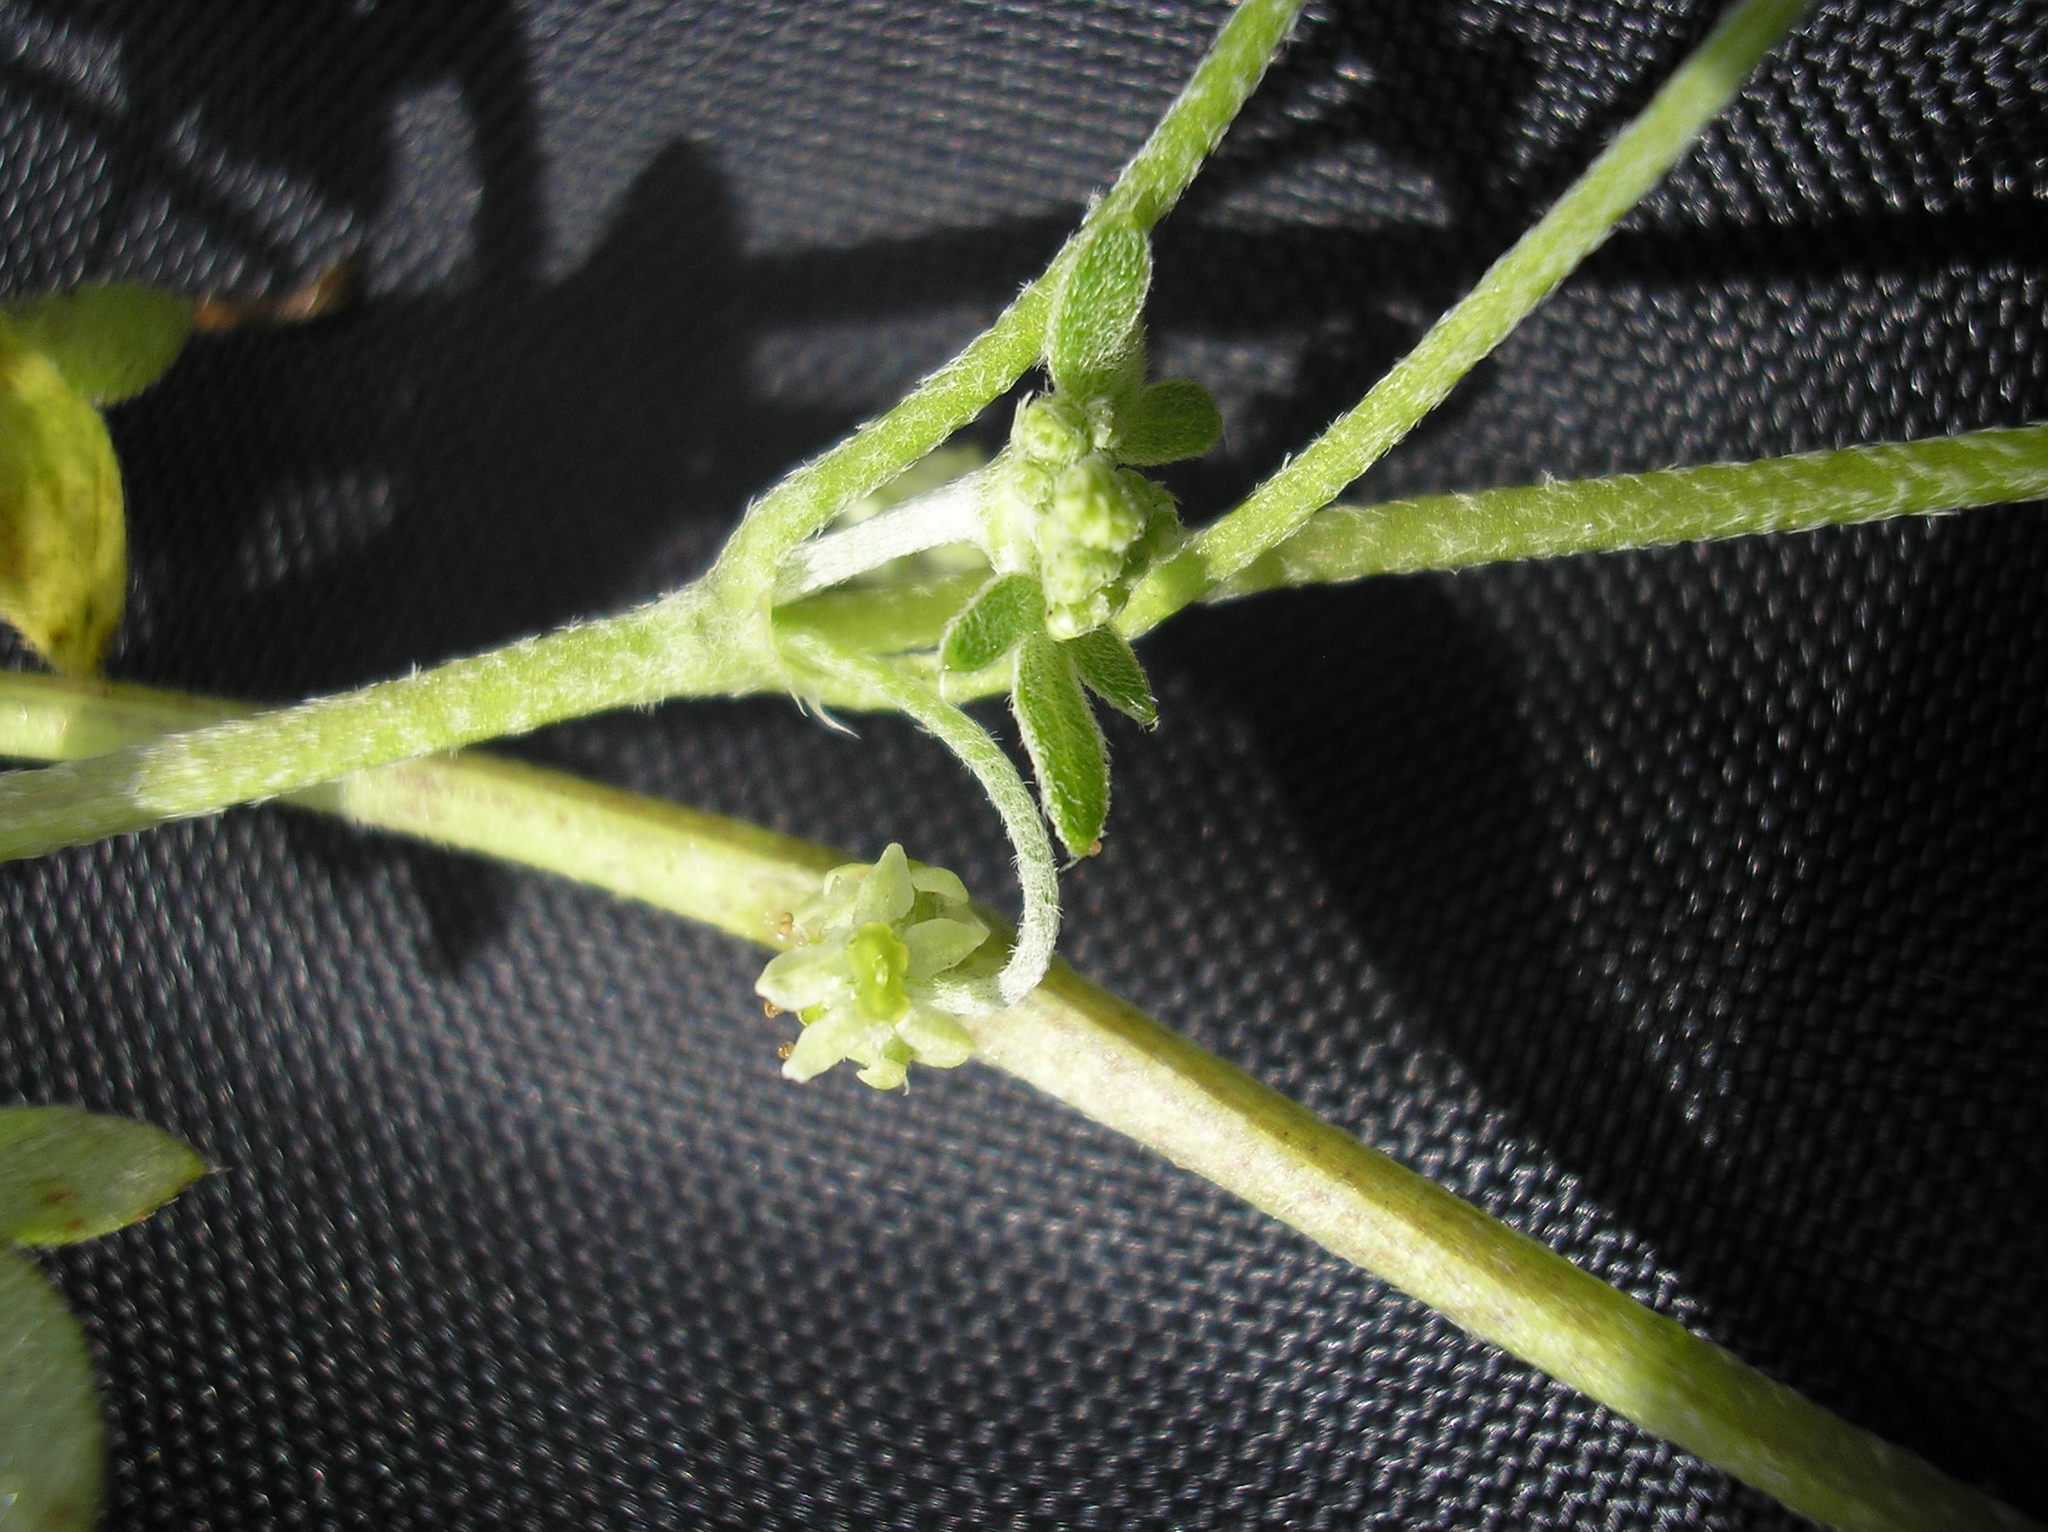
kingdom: Plantae
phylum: Tracheophyta
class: Magnoliopsida
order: Apiales
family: Apiaceae
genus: Bowlesia
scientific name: Bowlesia incana
